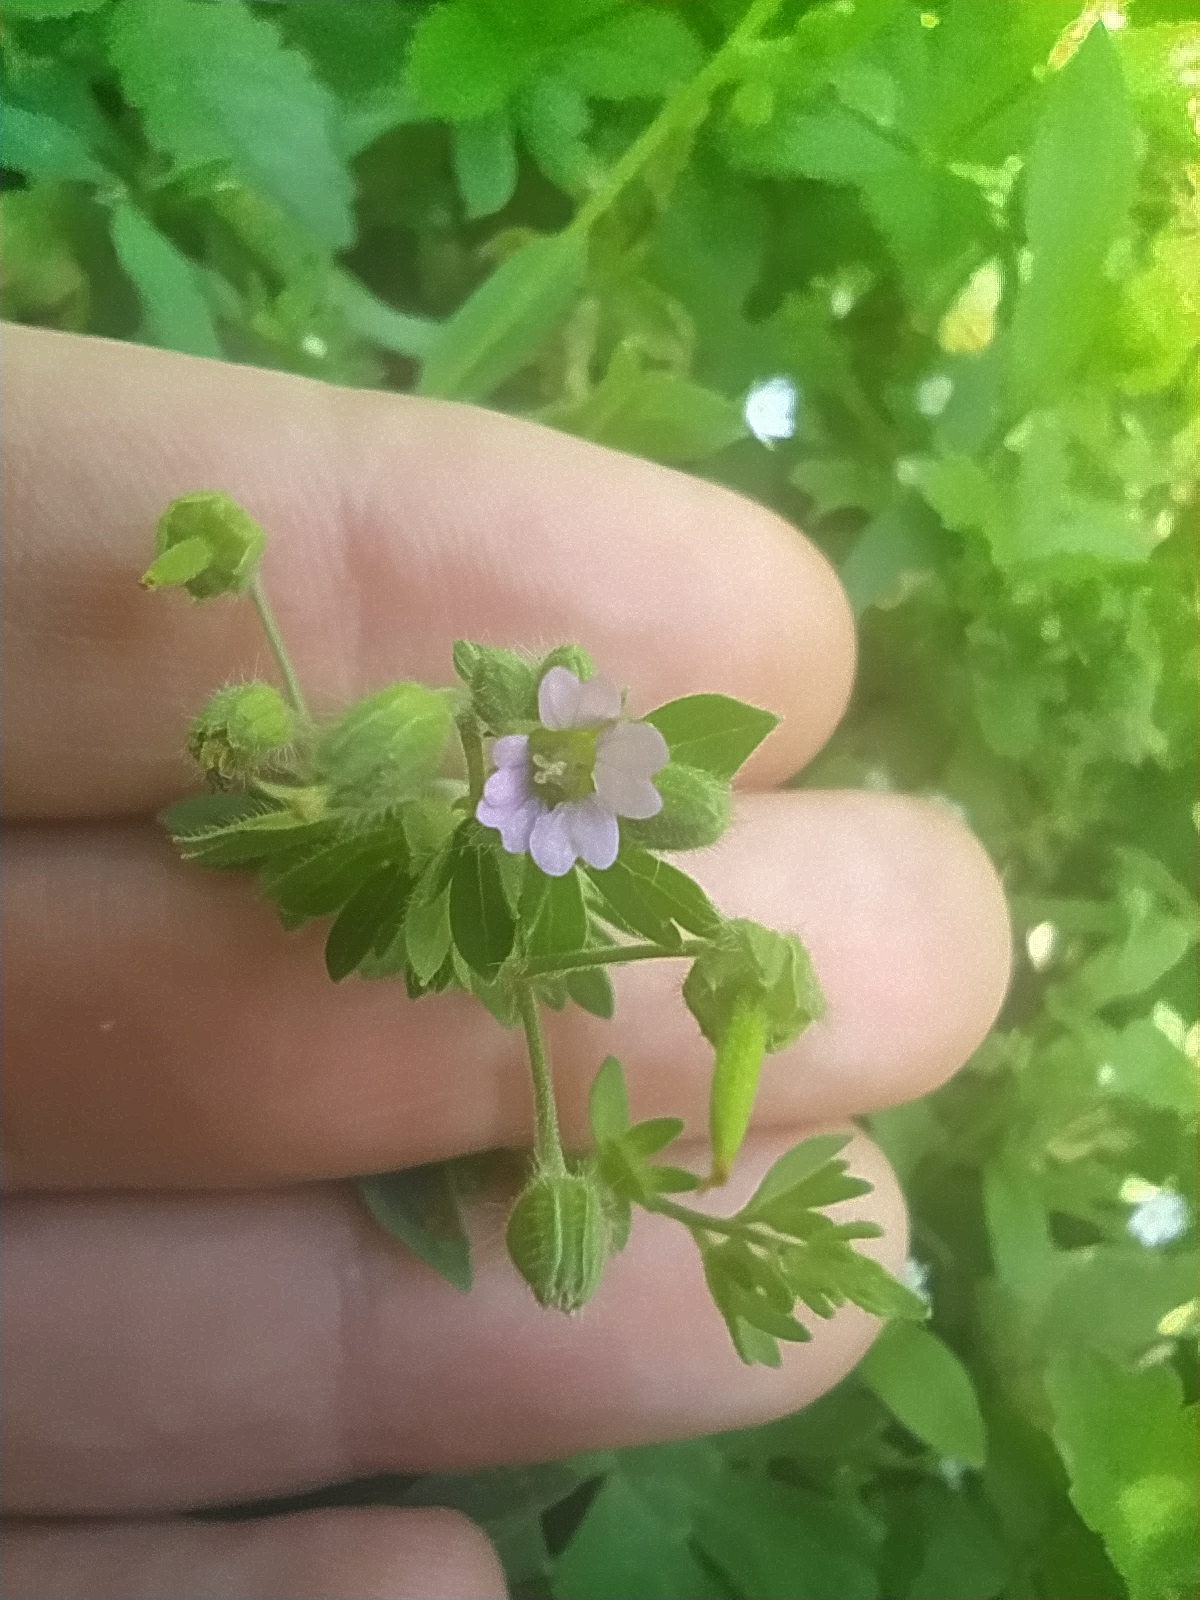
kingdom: Plantae
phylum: Tracheophyta
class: Magnoliopsida
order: Geraniales
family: Geraniaceae
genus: Geranium
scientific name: Geranium pusillum
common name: Small geranium
